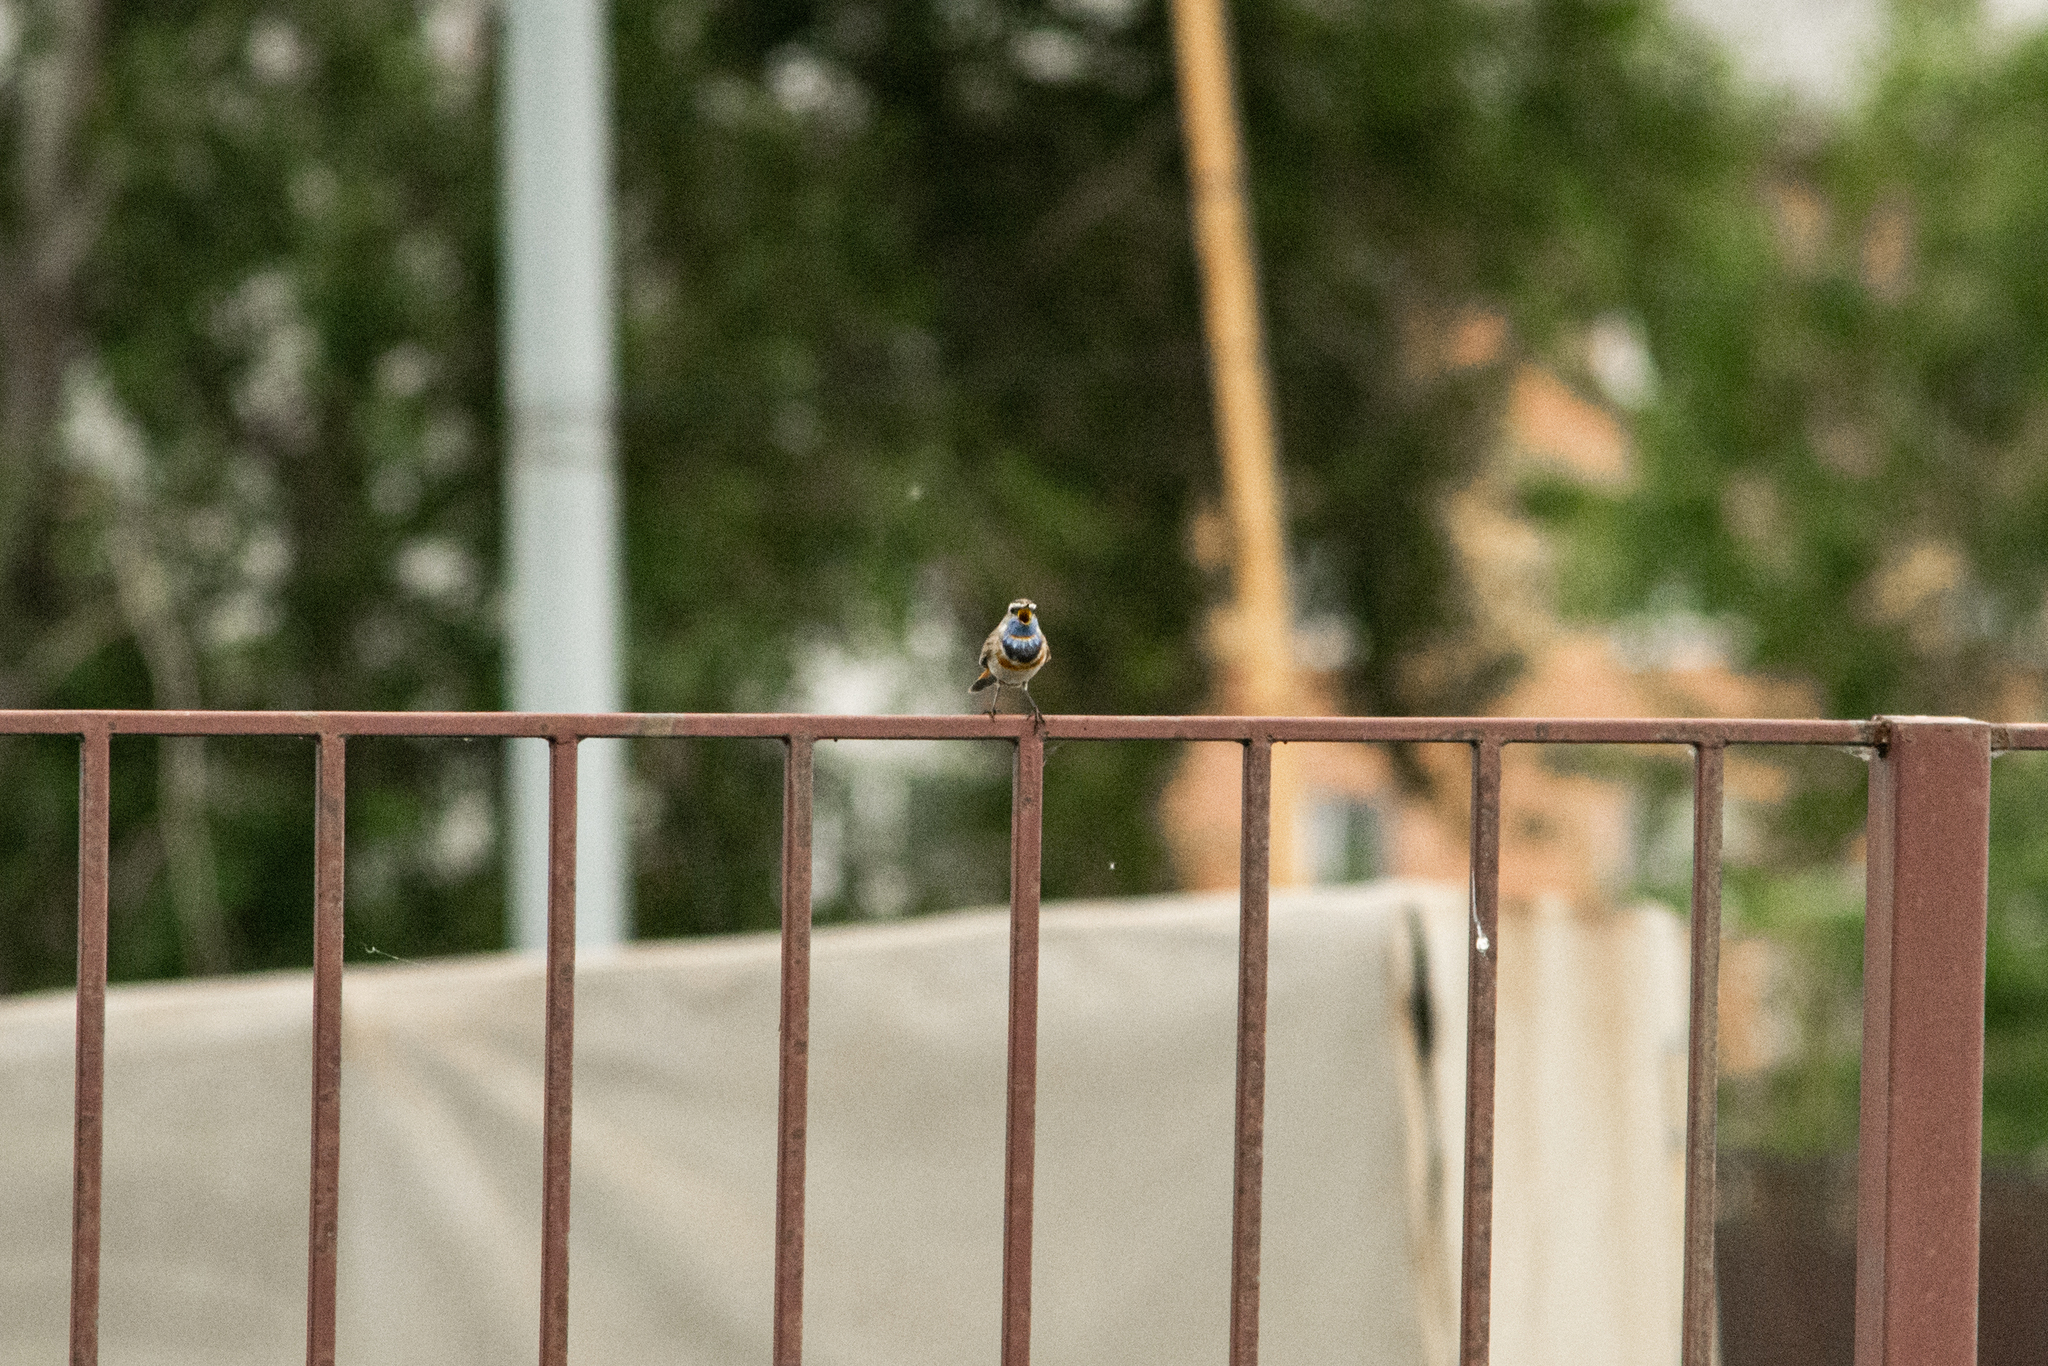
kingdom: Animalia
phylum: Chordata
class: Aves
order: Passeriformes
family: Muscicapidae
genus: Luscinia
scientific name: Luscinia svecica
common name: Bluethroat
